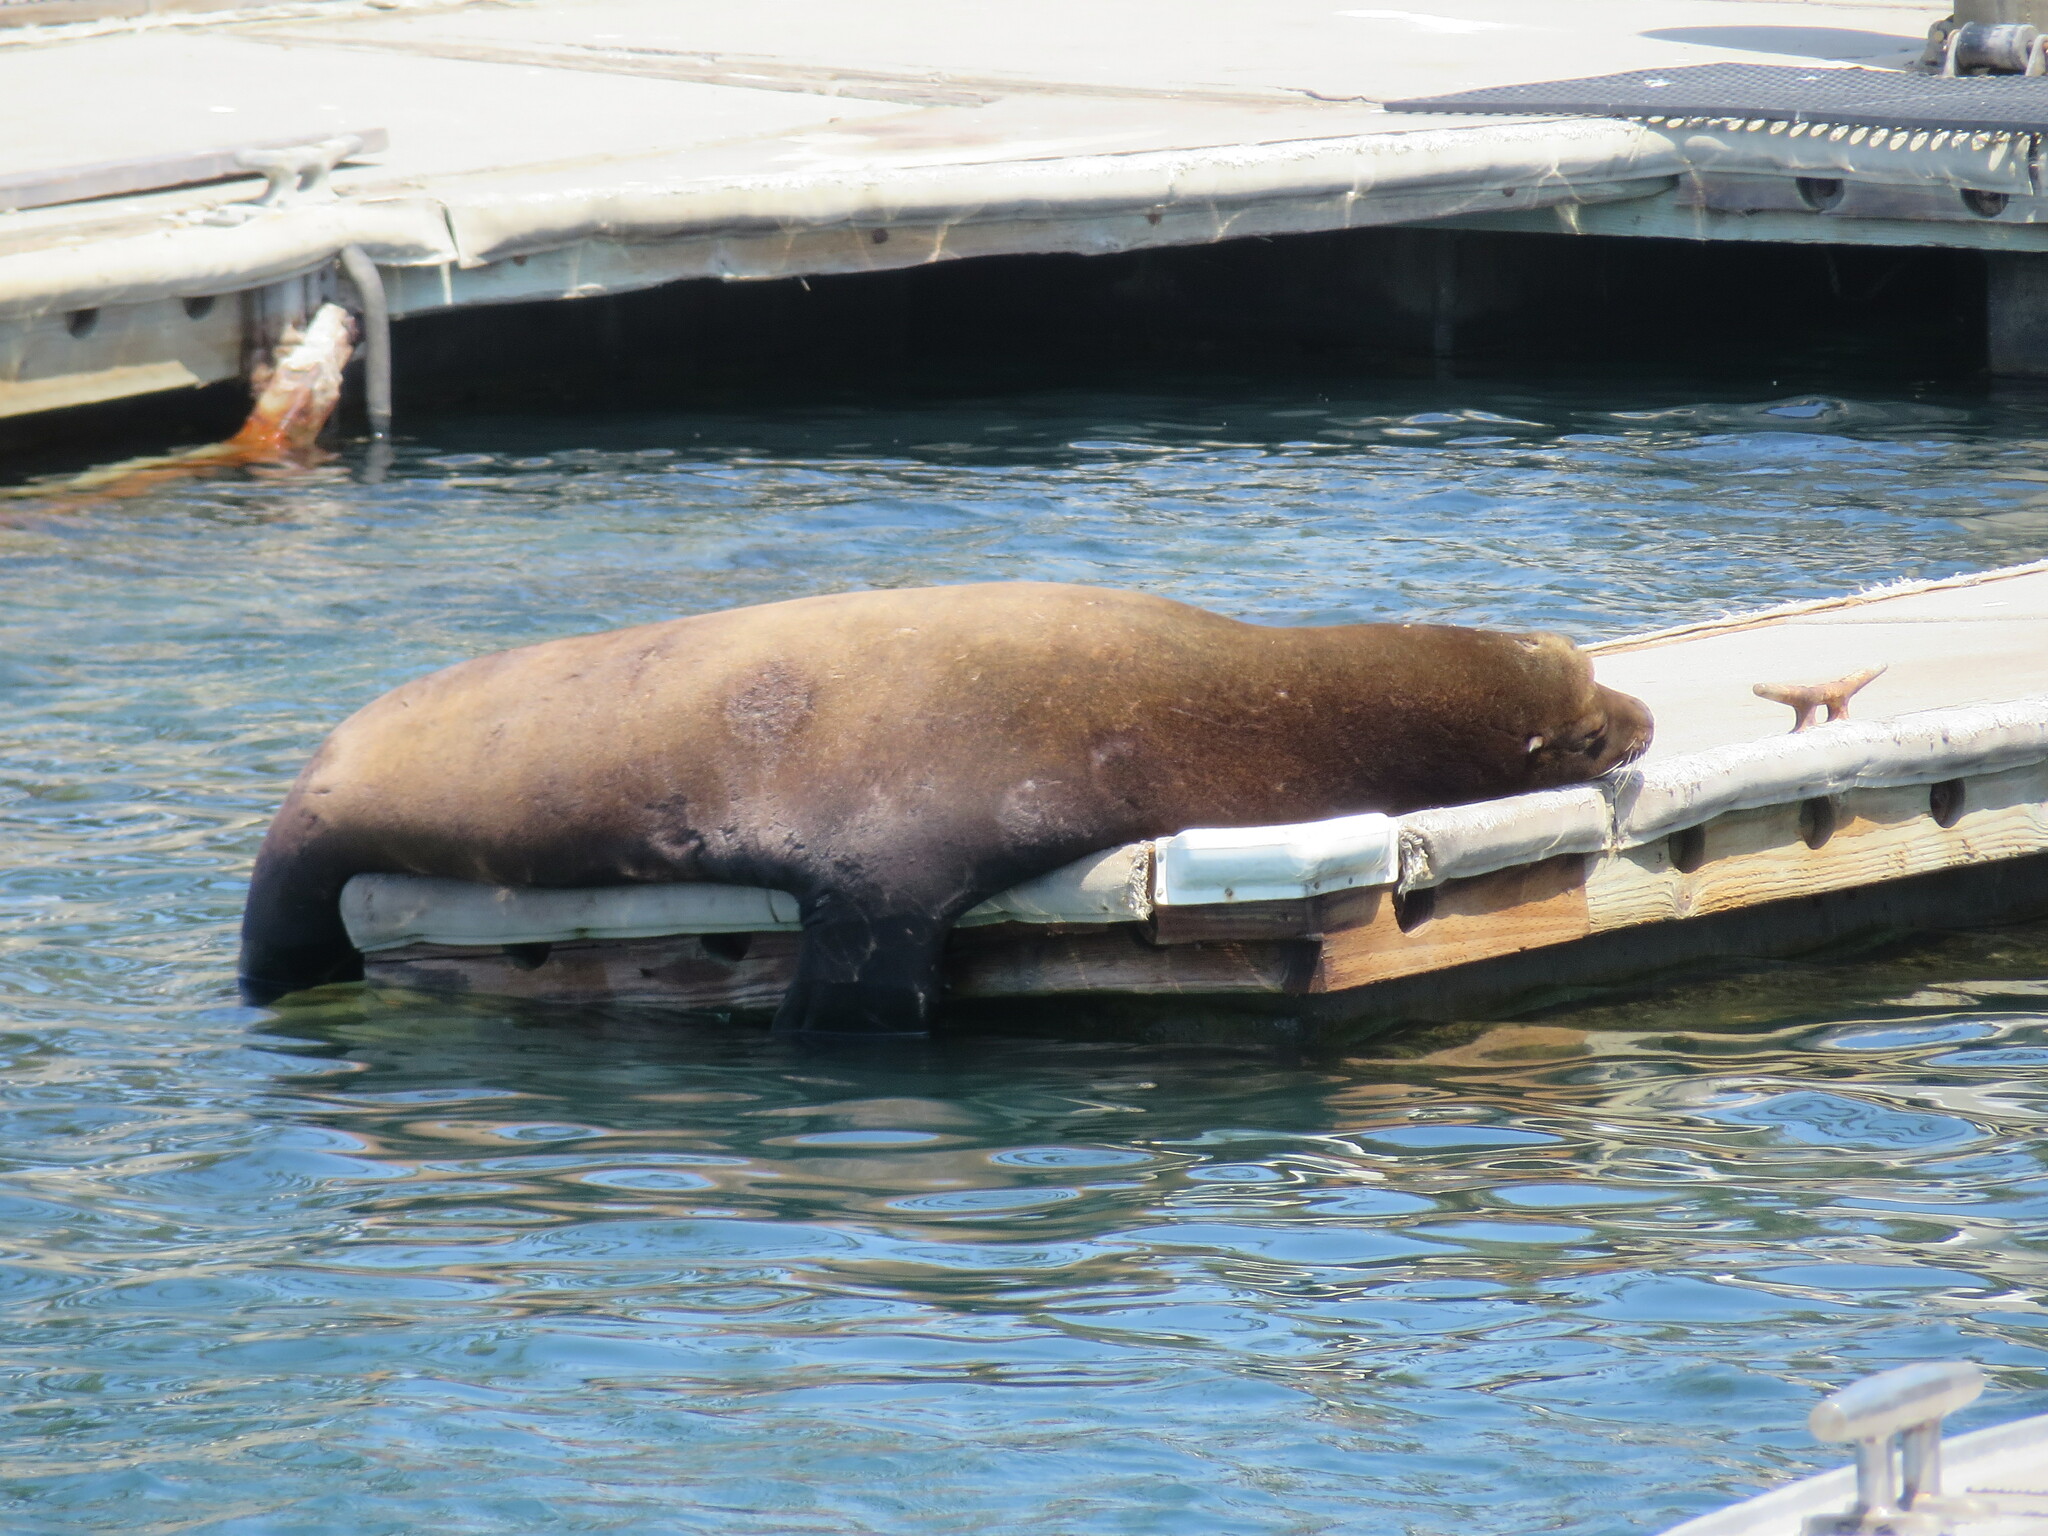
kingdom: Animalia
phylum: Chordata
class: Mammalia
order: Carnivora
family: Otariidae
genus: Zalophus
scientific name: Zalophus californianus
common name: California sea lion
